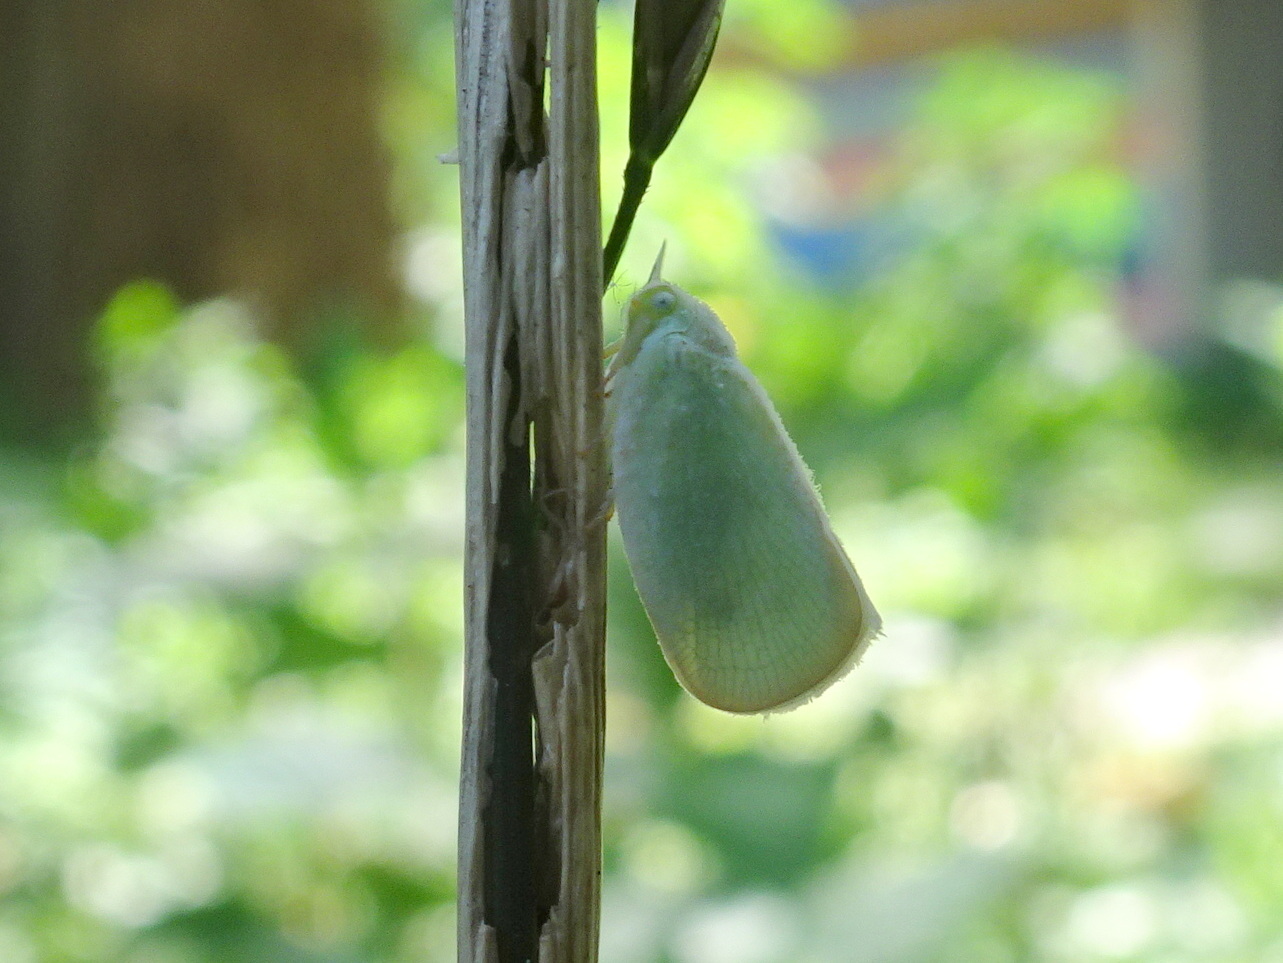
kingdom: Animalia
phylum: Arthropoda
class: Insecta
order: Hemiptera
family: Flatidae
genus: Ormenoides
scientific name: Ormenoides venusta
